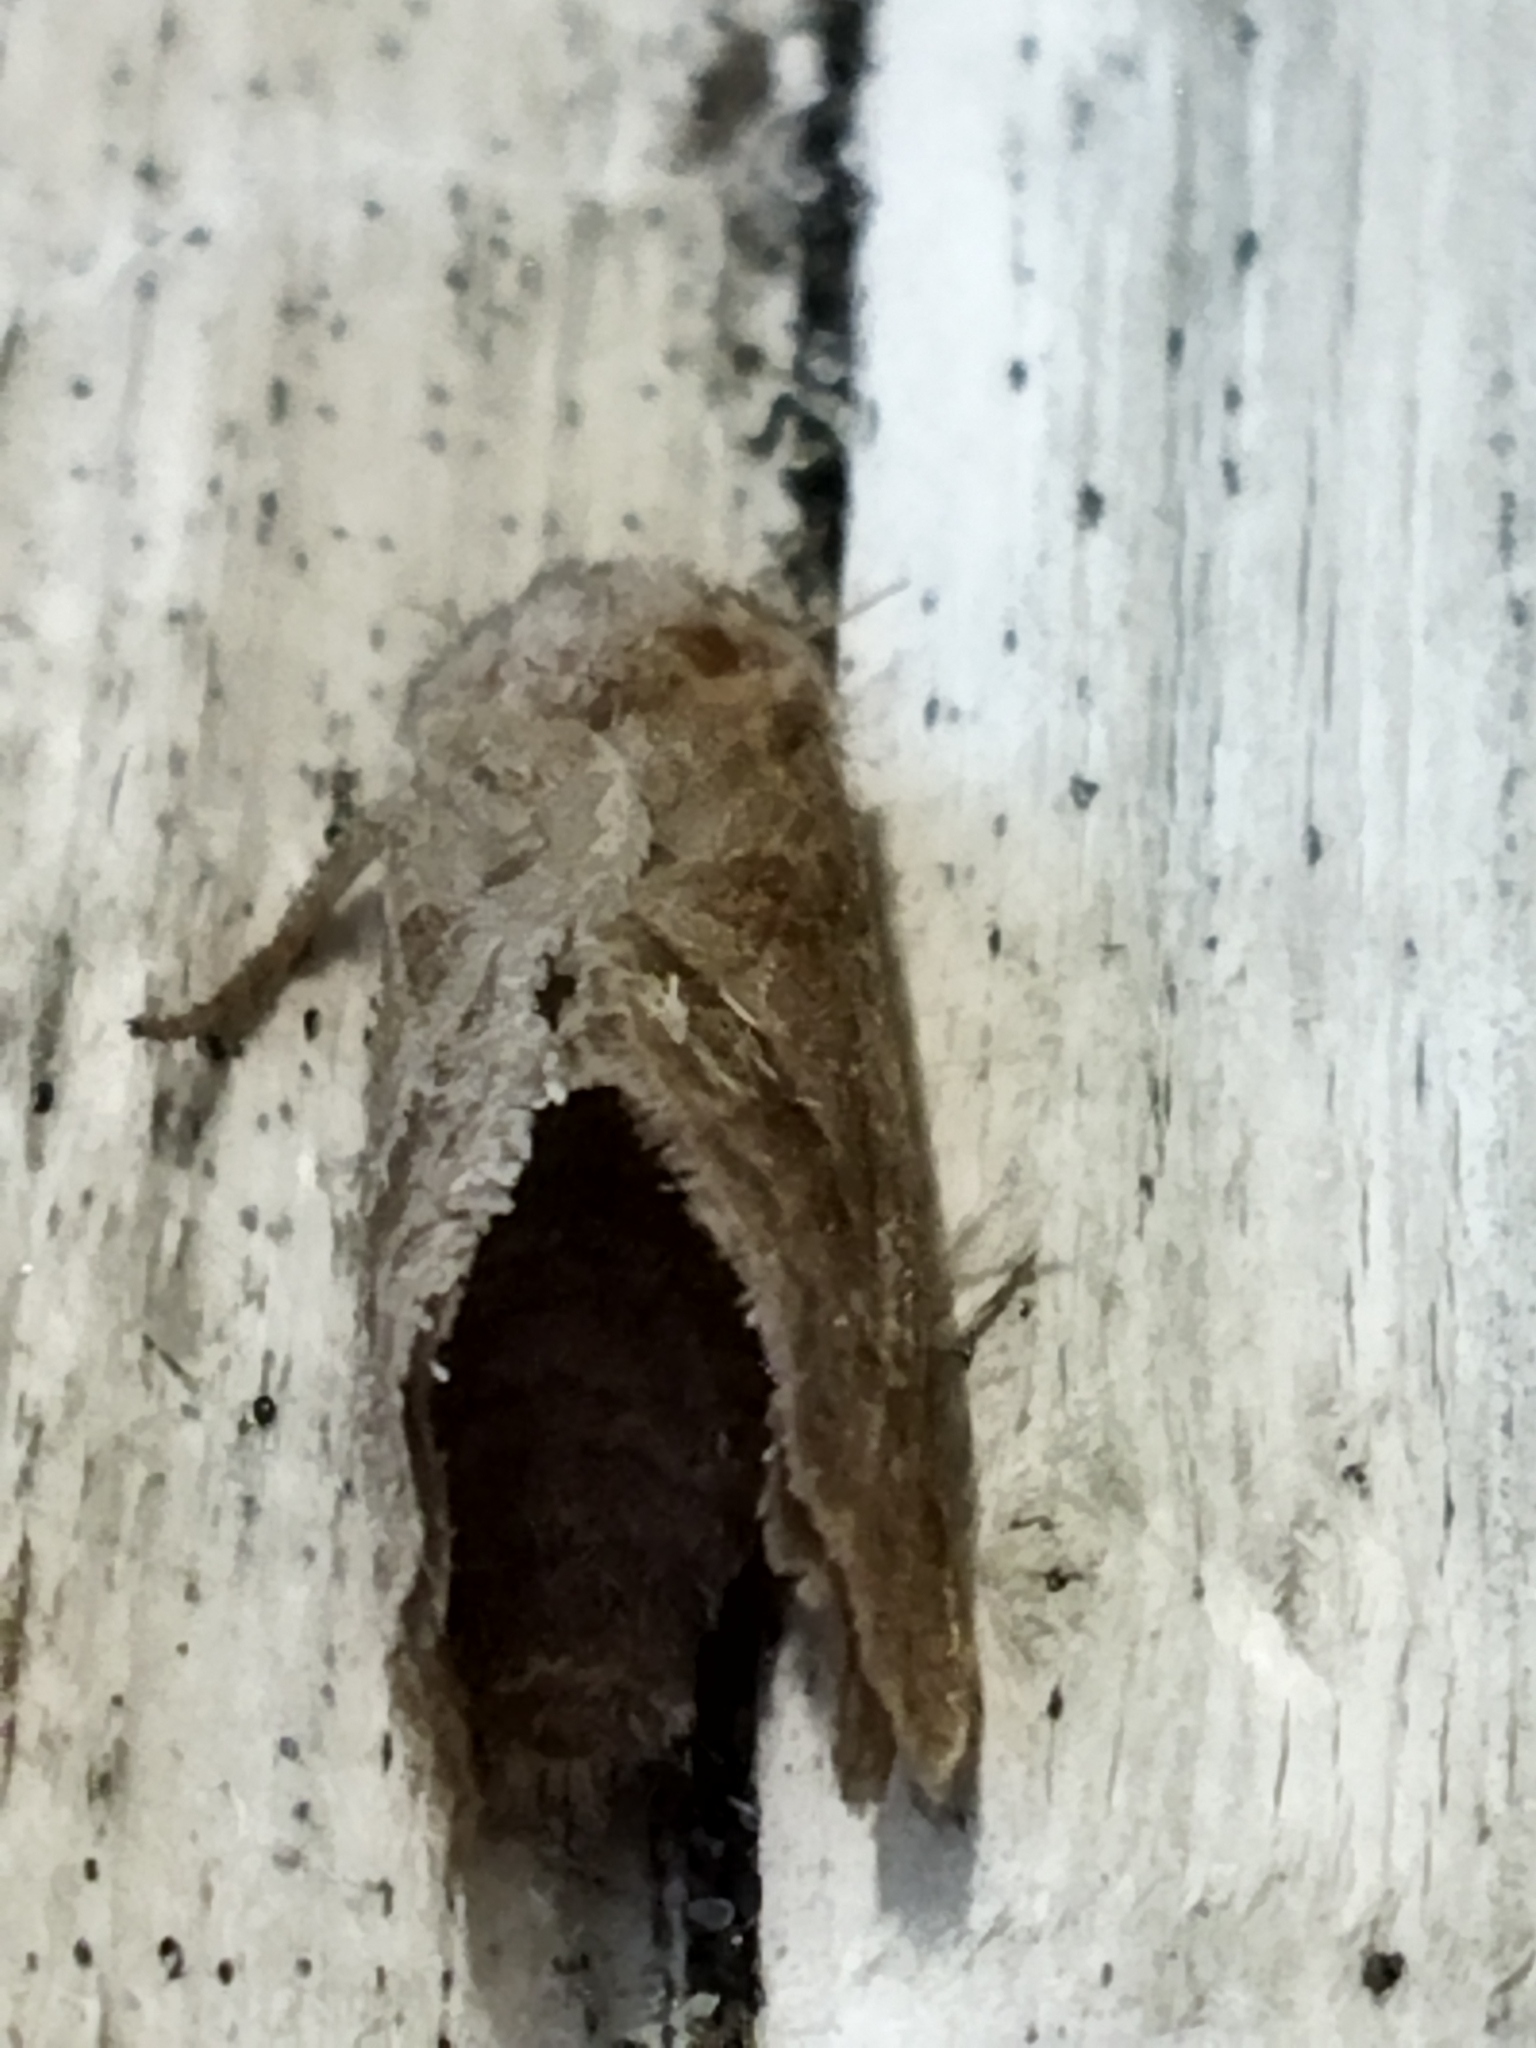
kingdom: Animalia
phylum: Arthropoda
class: Insecta
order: Lepidoptera
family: Hepialidae
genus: Triodia
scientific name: Triodia sylvina
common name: Orange swift
